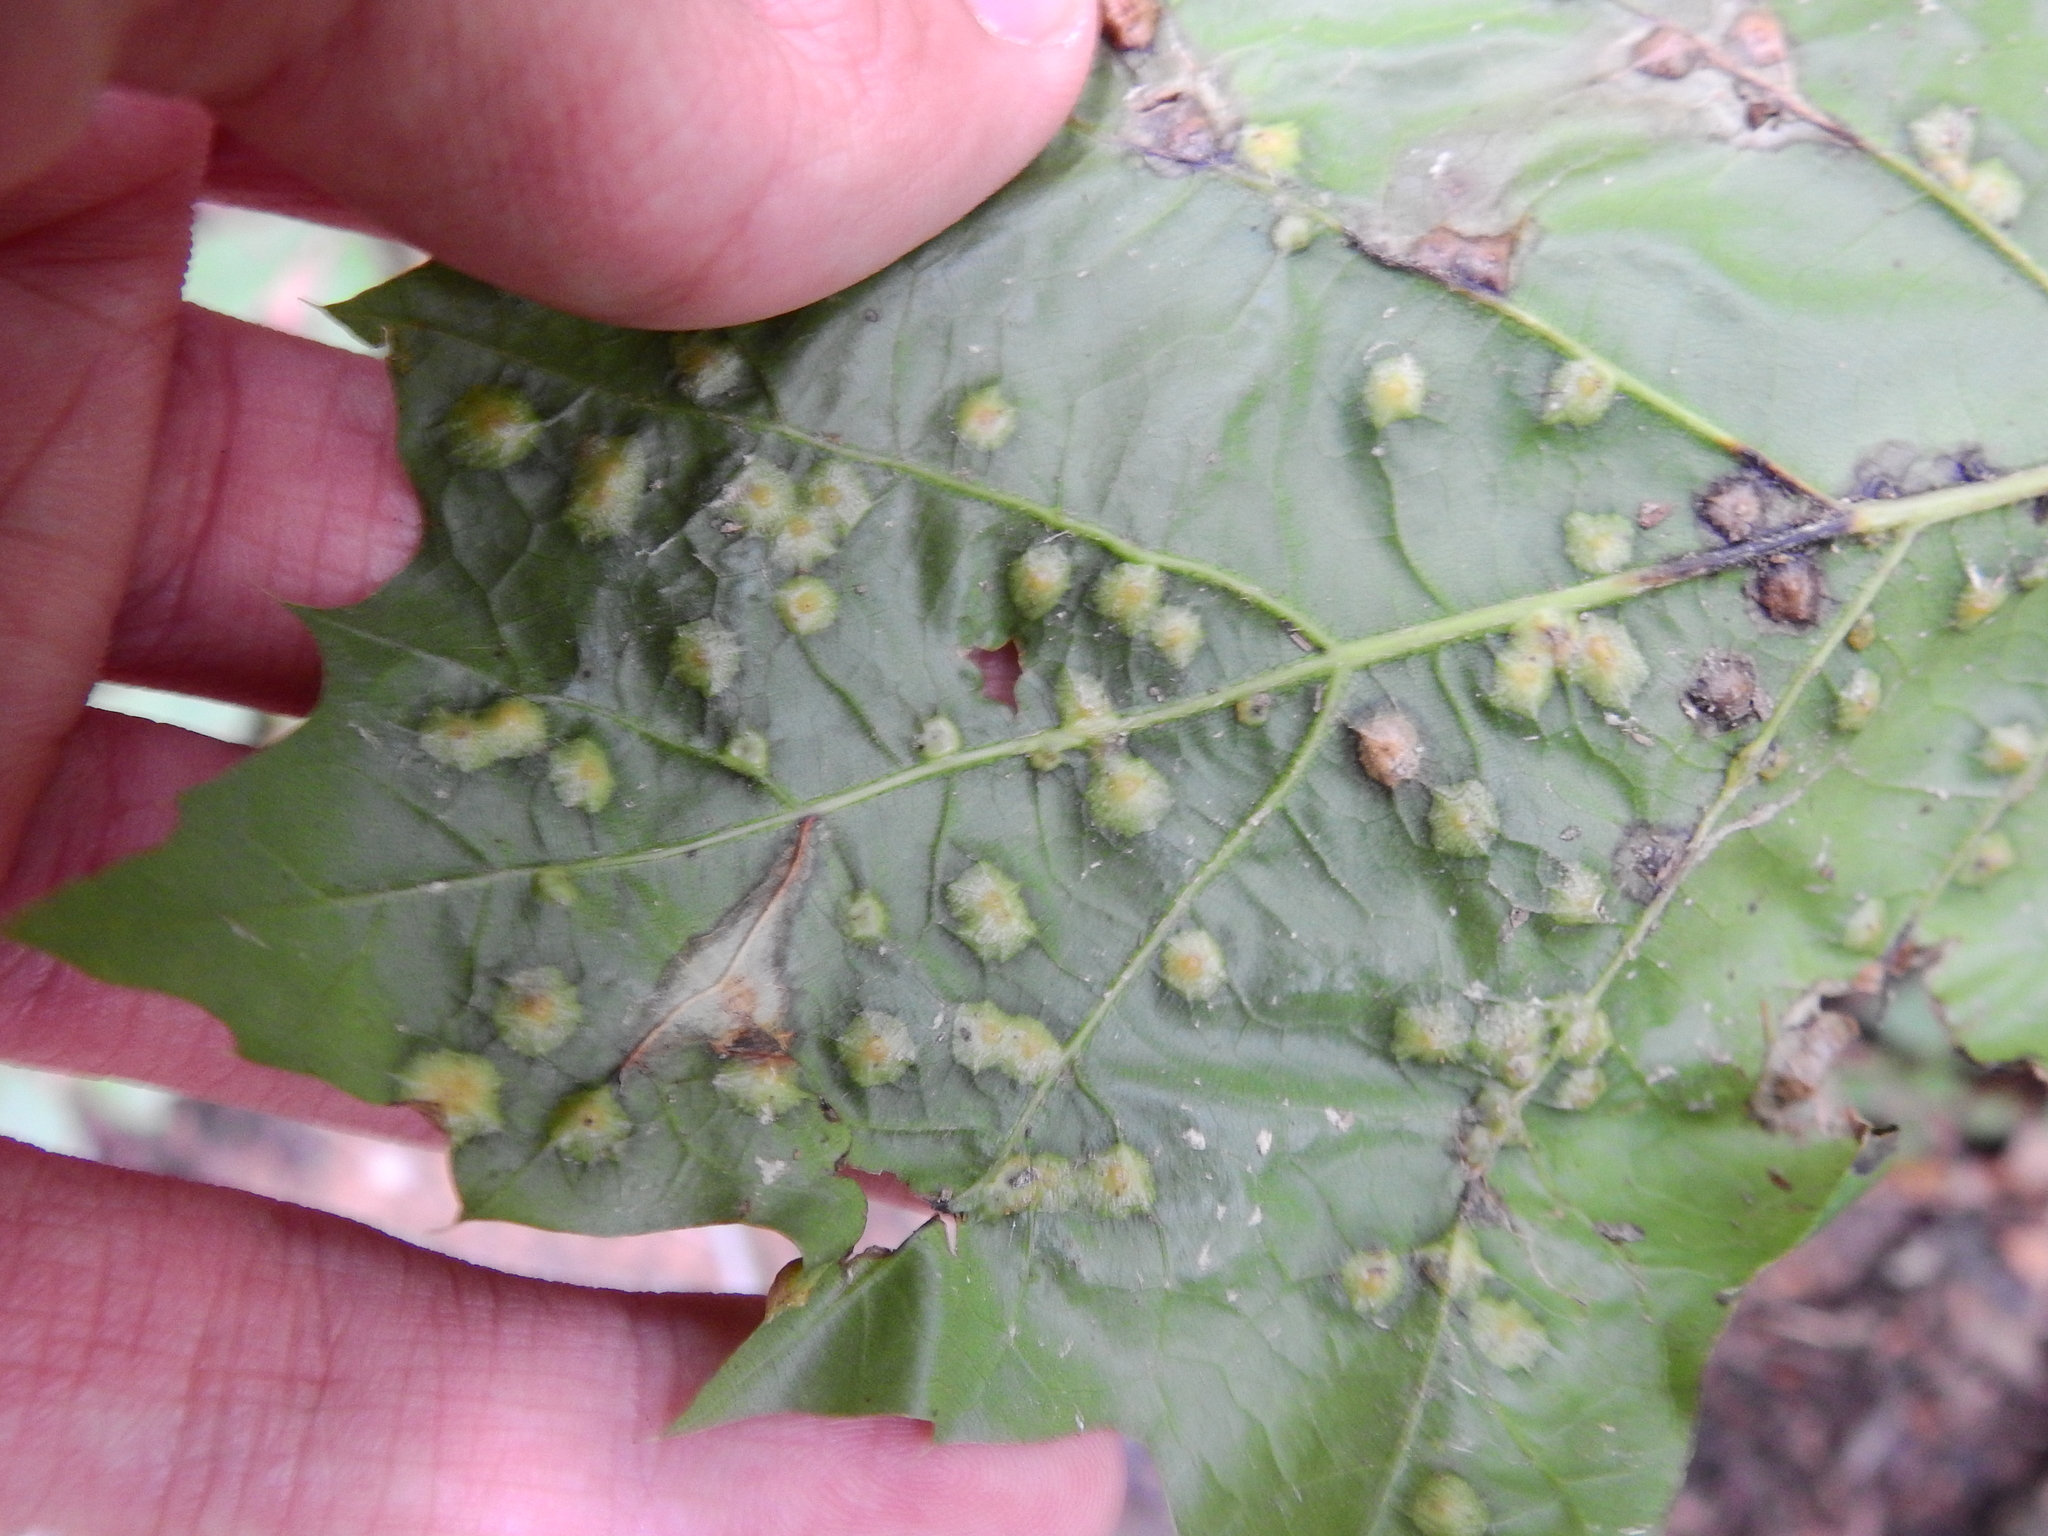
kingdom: Animalia
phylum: Arthropoda
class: Insecta
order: Diptera
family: Cecidomyiidae
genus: Polystepha
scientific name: Polystepha pilulae
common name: Oak leaf gall midge
